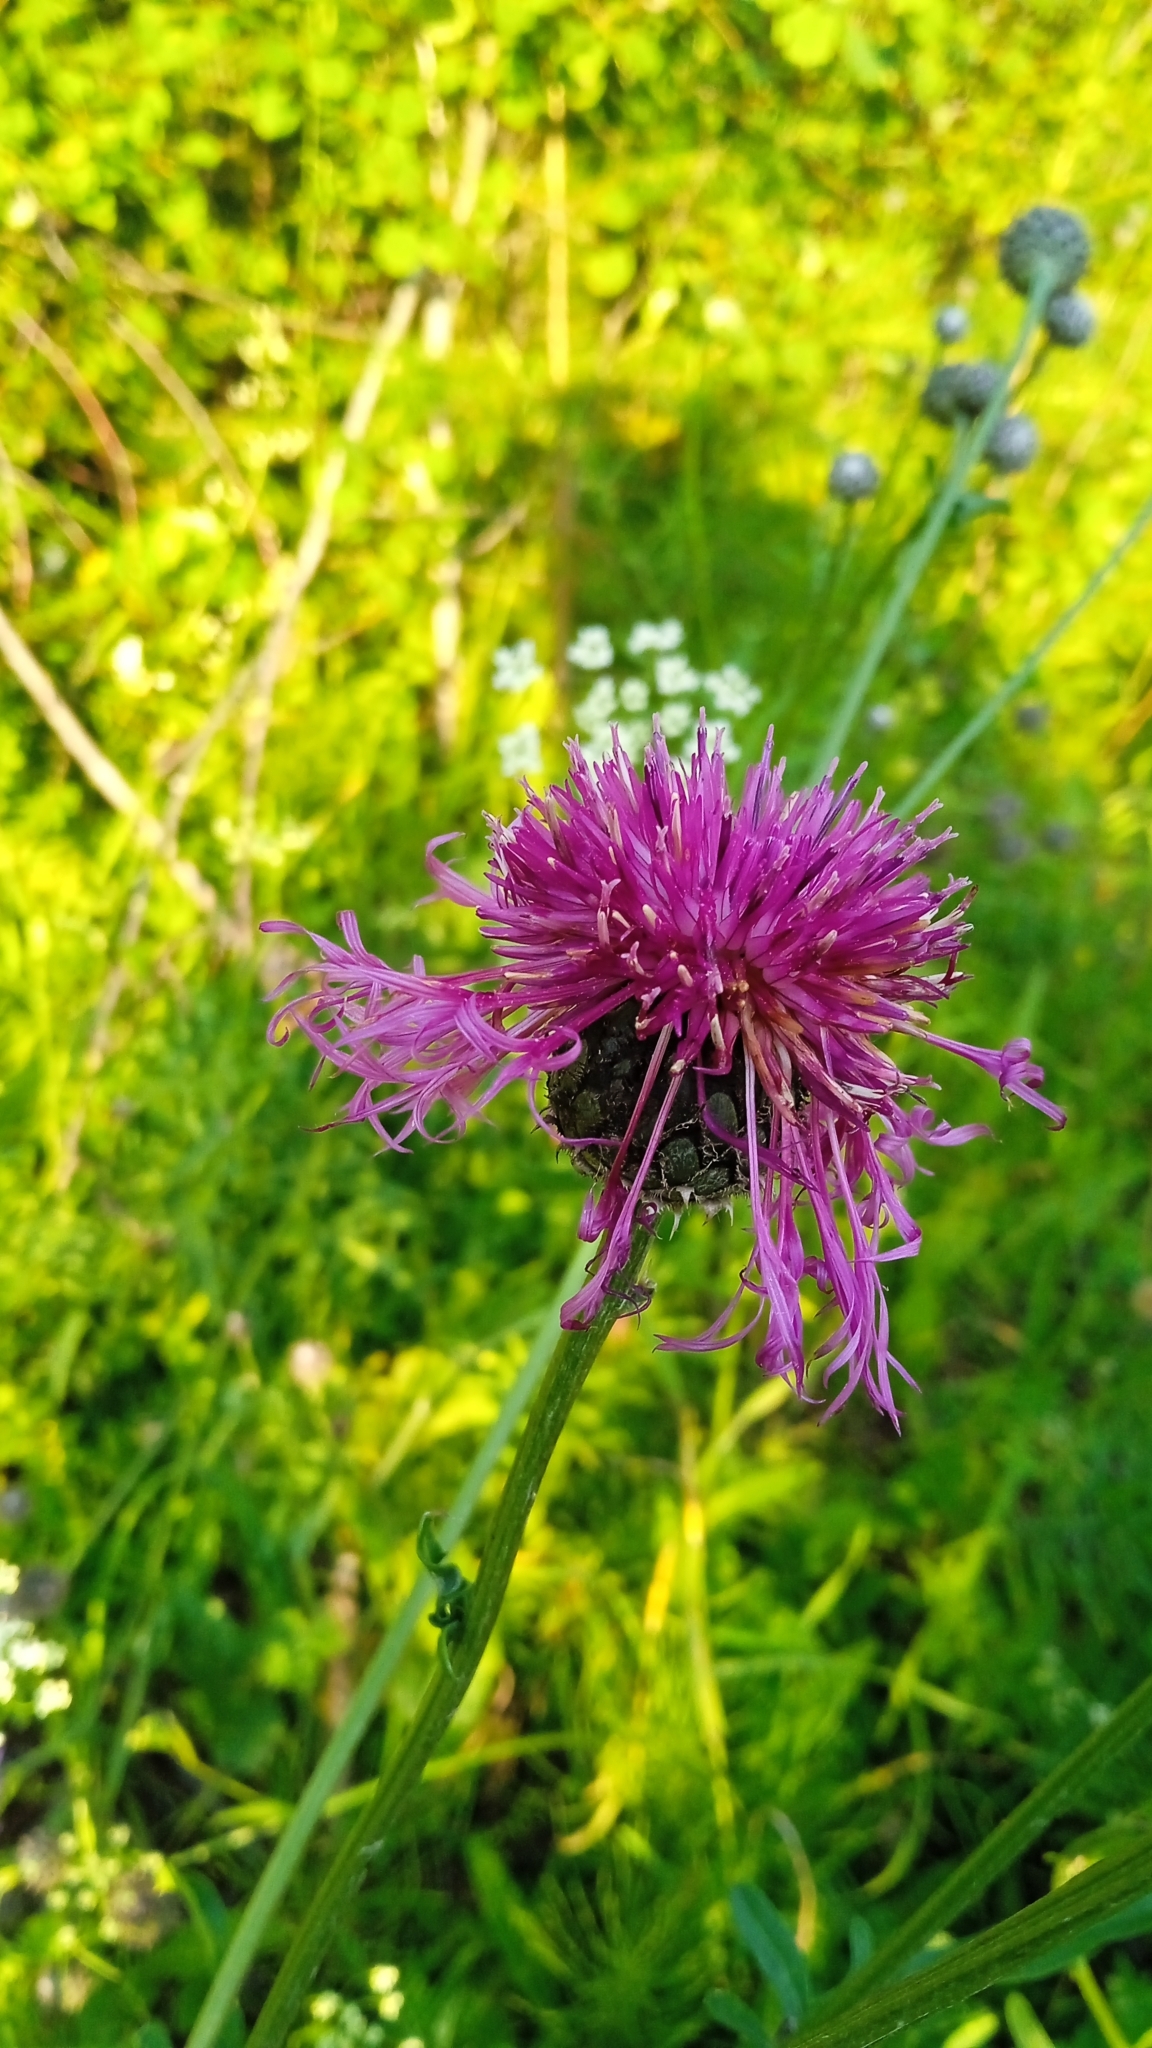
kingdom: Plantae
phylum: Tracheophyta
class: Magnoliopsida
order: Asterales
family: Asteraceae
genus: Centaurea
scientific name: Centaurea scabiosa
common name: Greater knapweed
